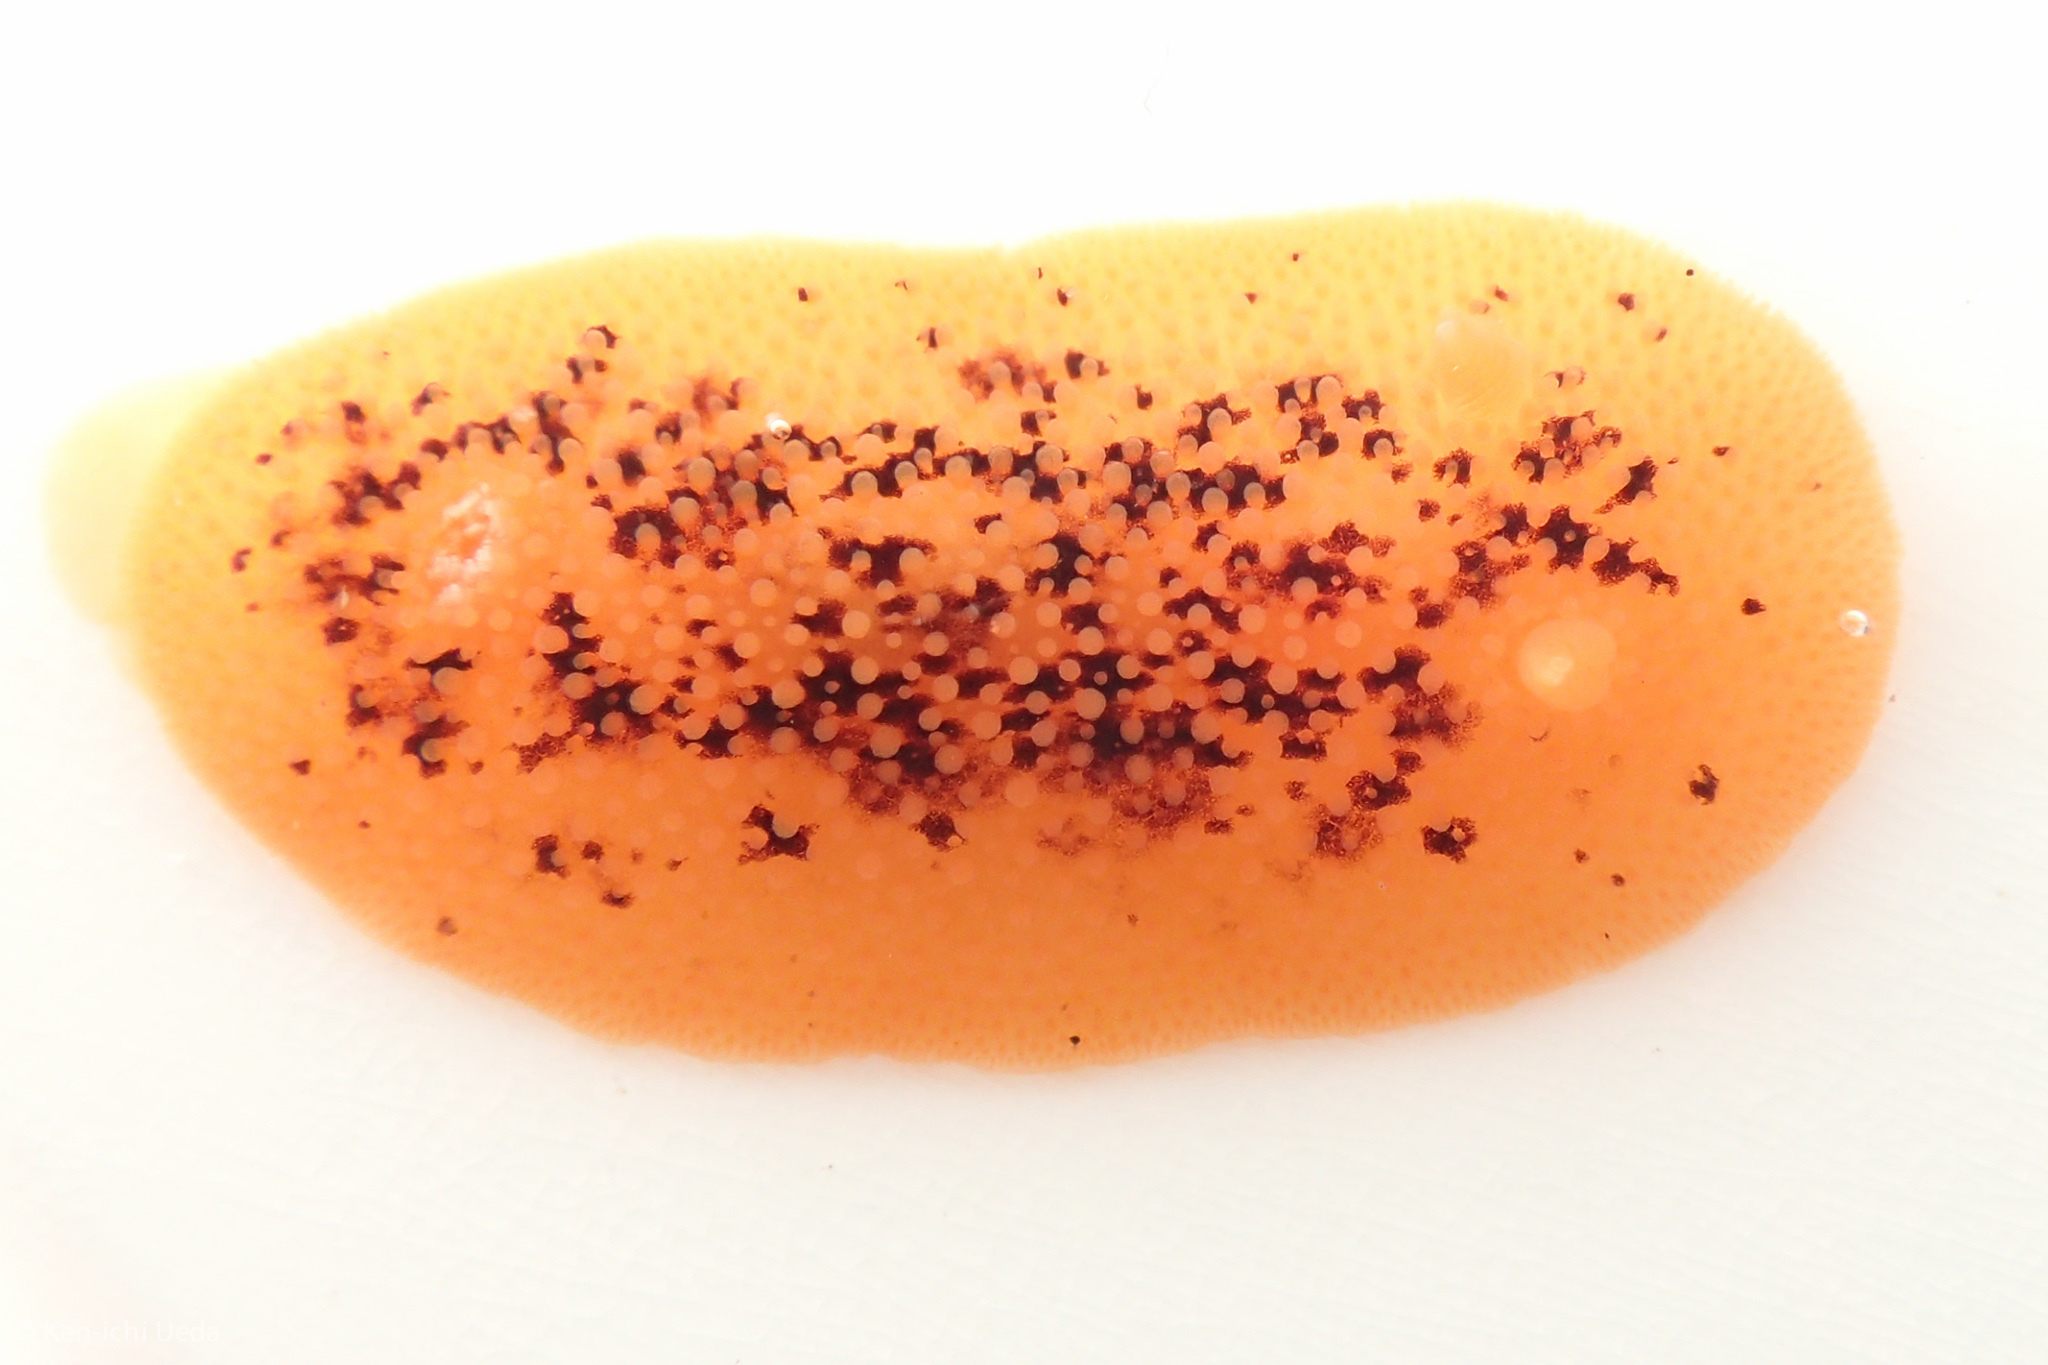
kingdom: Animalia
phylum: Mollusca
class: Gastropoda
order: Nudibranchia
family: Discodorididae
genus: Peltodoris
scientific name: Peltodoris nobilis
